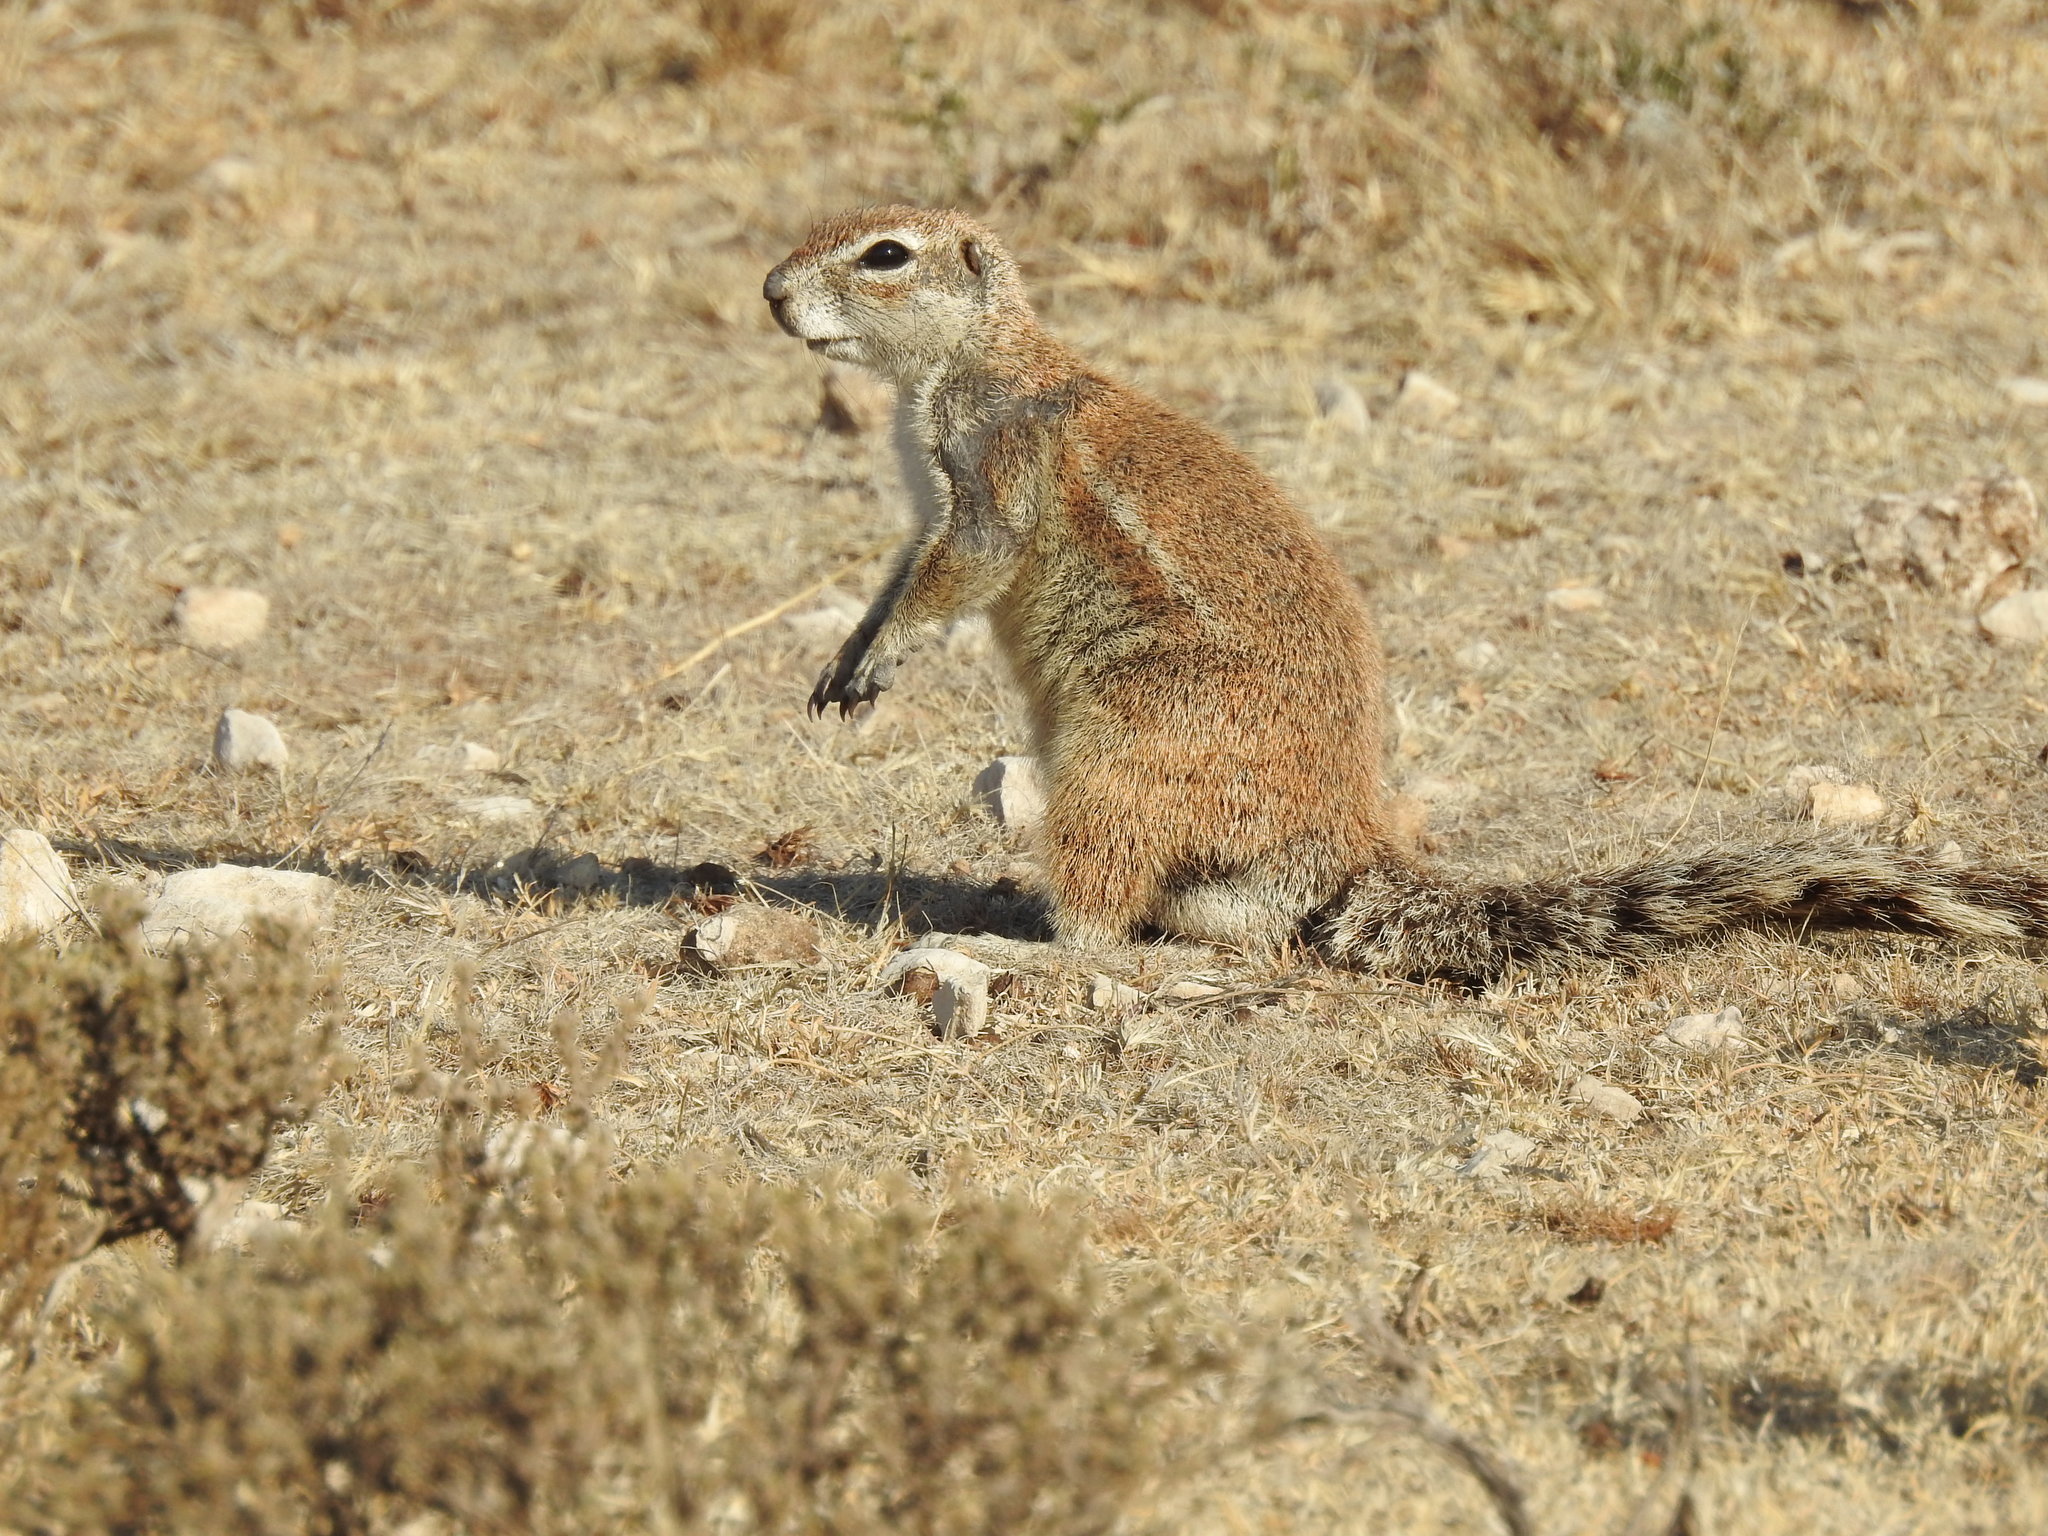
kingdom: Animalia
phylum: Chordata
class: Mammalia
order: Rodentia
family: Sciuridae
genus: Xerus
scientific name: Xerus inauris
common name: South african ground squirrel
